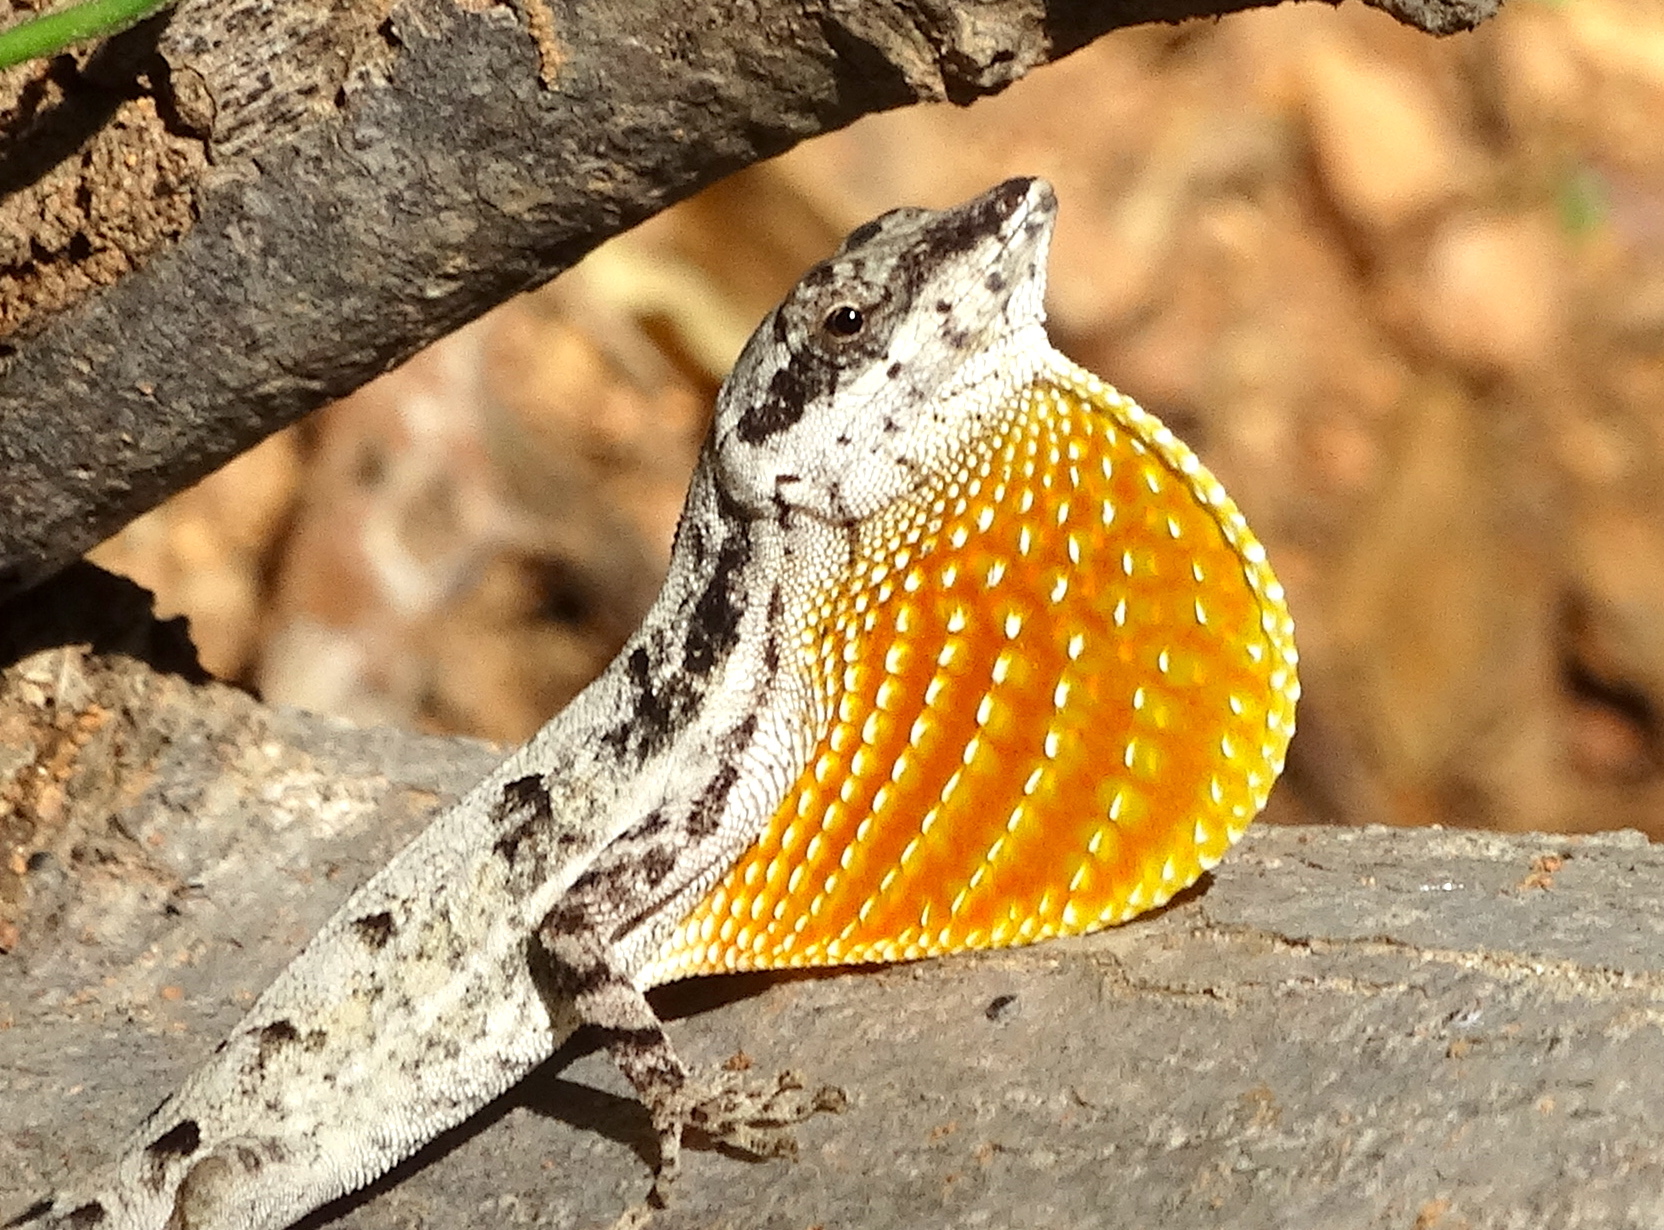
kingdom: Animalia
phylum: Chordata
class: Squamata
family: Dactyloidae
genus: Anolis
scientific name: Anolis nebulosus
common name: Clouded anole
